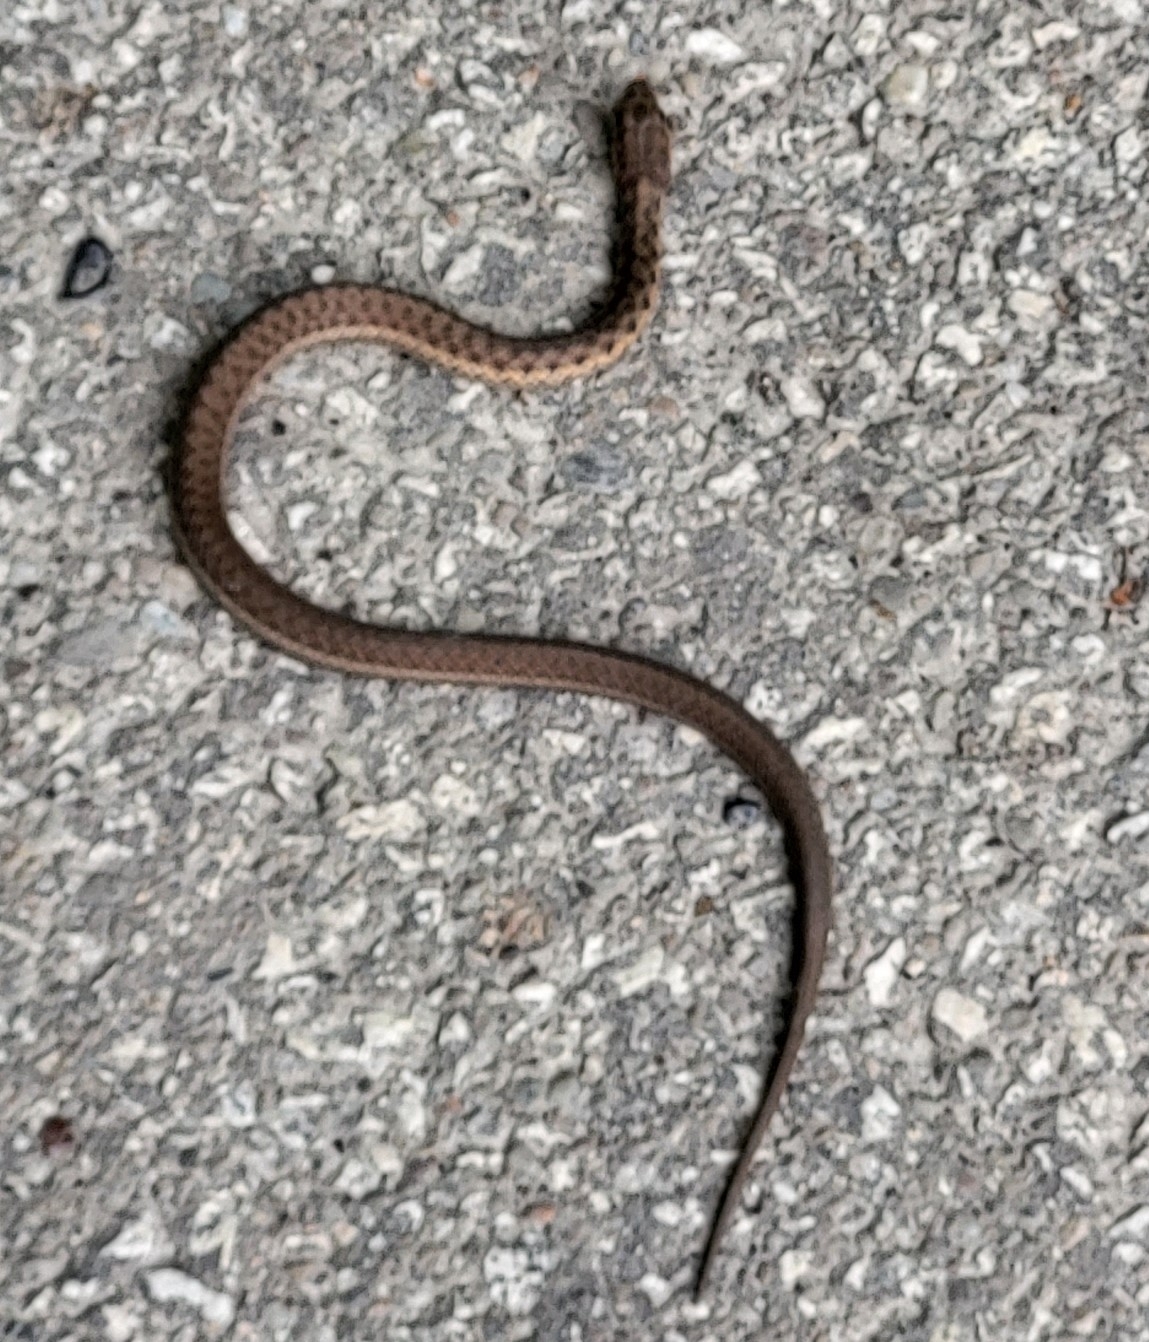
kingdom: Animalia
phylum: Chordata
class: Squamata
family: Colubridae
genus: Thamnophis
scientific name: Thamnophis sirtalis
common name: Common garter snake
